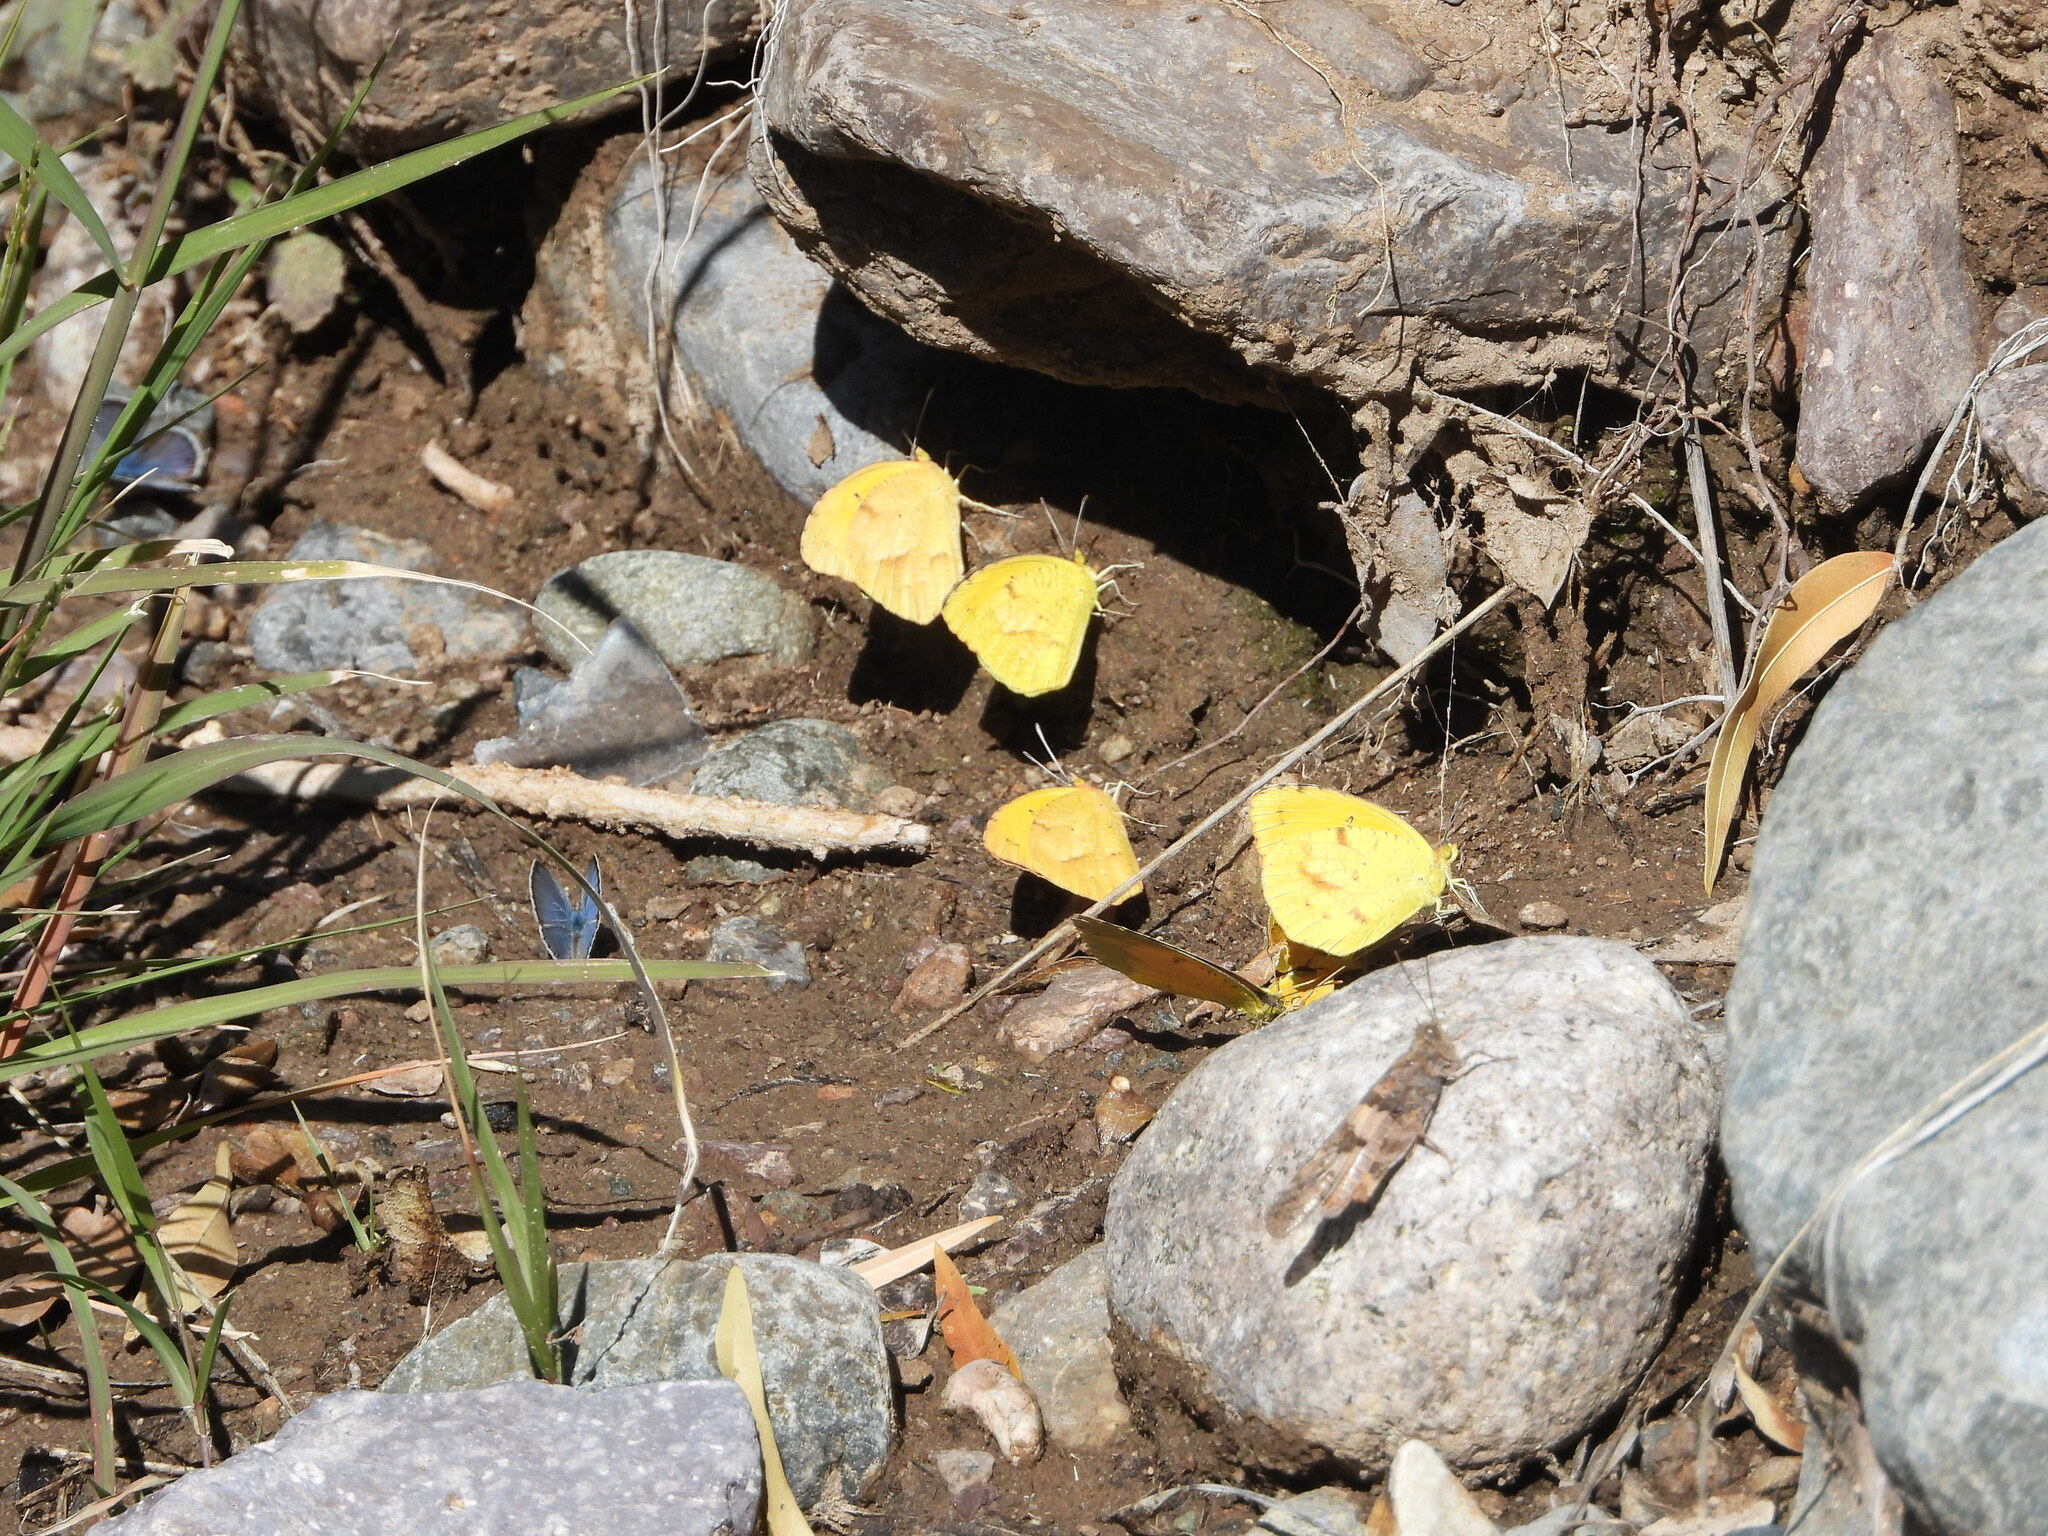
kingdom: Animalia
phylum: Arthropoda
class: Insecta
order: Lepidoptera
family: Pieridae
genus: Abaeis
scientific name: Abaeis mexicana
